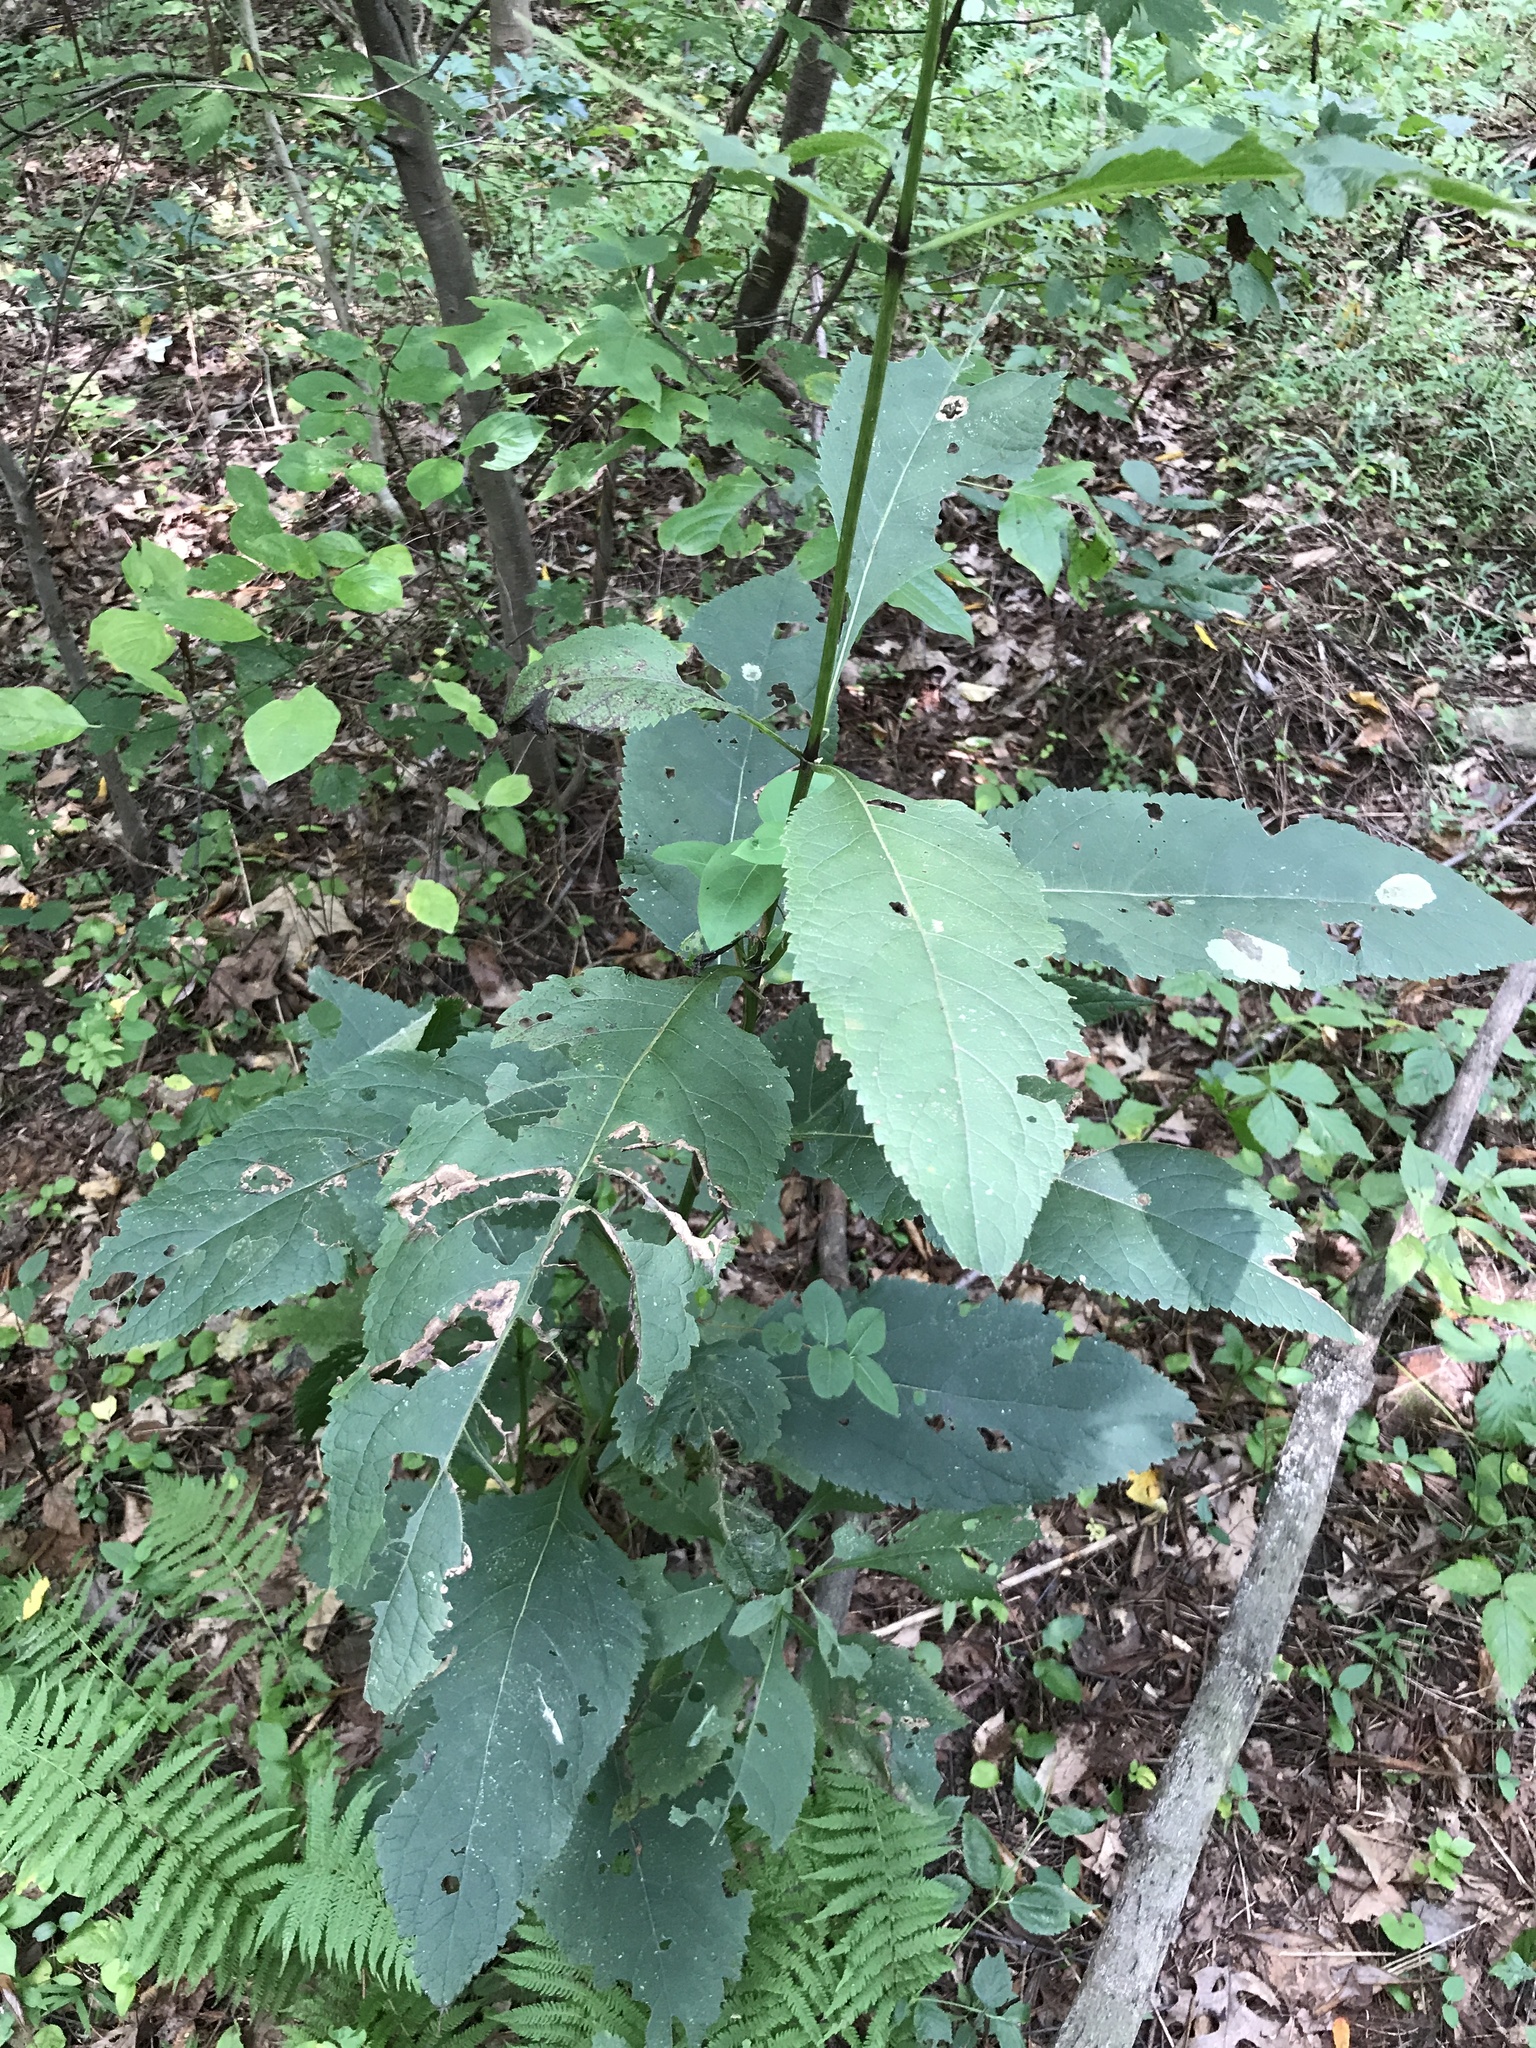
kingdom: Plantae
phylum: Tracheophyta
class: Magnoliopsida
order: Asterales
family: Asteraceae
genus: Eutrochium
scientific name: Eutrochium purpureum
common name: Gravelroot
